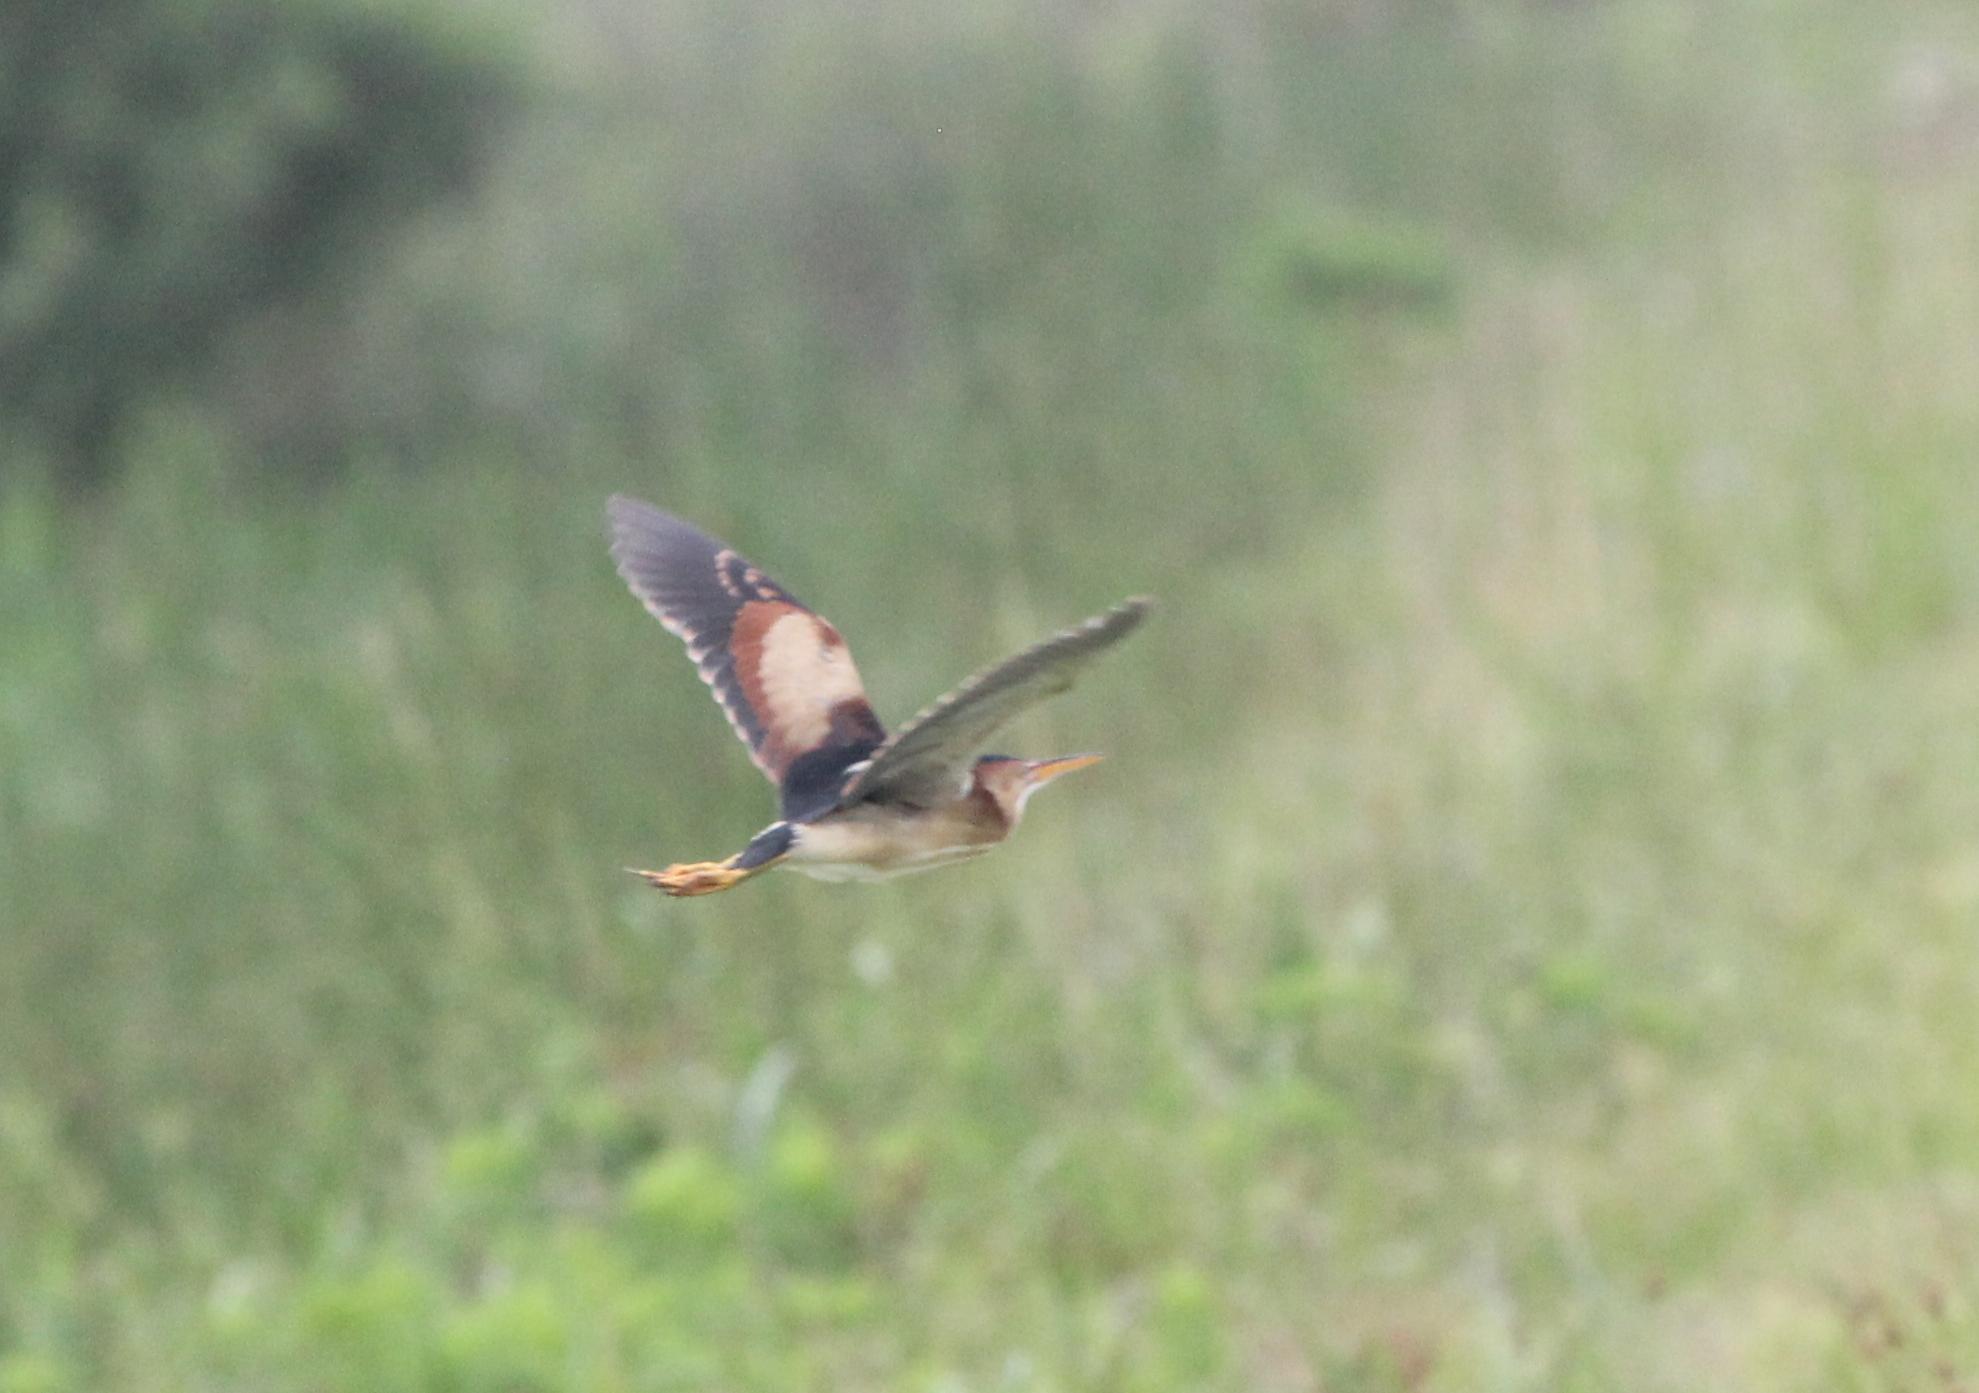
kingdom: Animalia
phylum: Chordata
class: Aves
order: Pelecaniformes
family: Ardeidae
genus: Ixobrychus
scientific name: Ixobrychus exilis
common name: Least bittern
